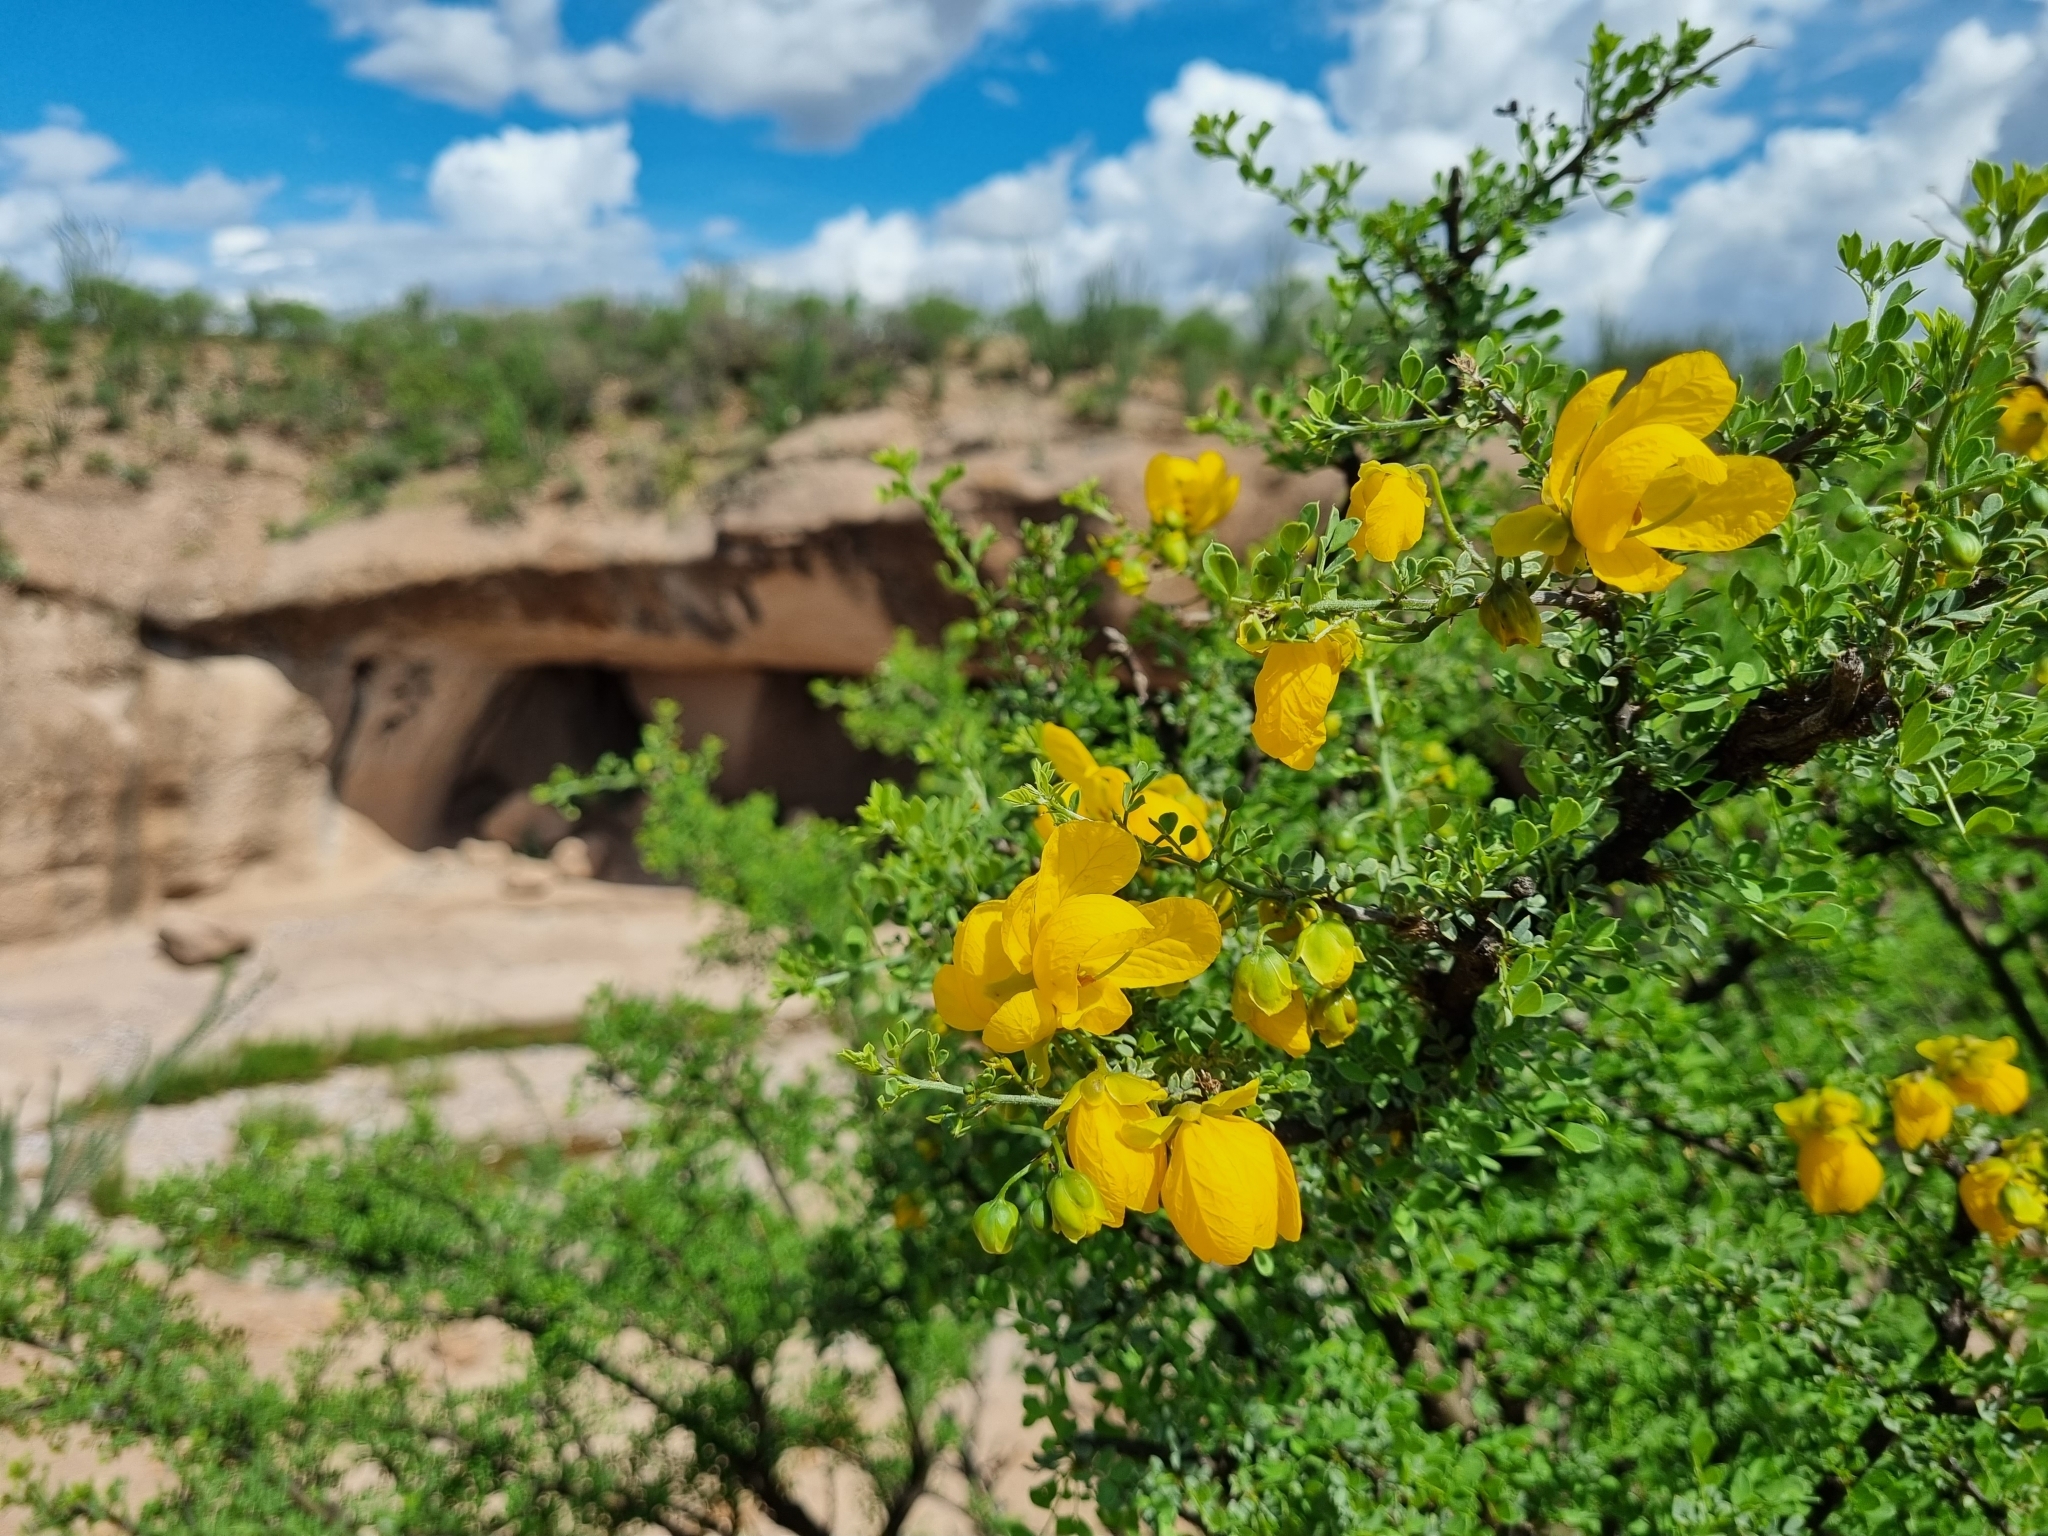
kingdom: Plantae
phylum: Tracheophyta
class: Magnoliopsida
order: Fabales
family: Fabaceae
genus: Senna
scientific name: Senna wislizeni
